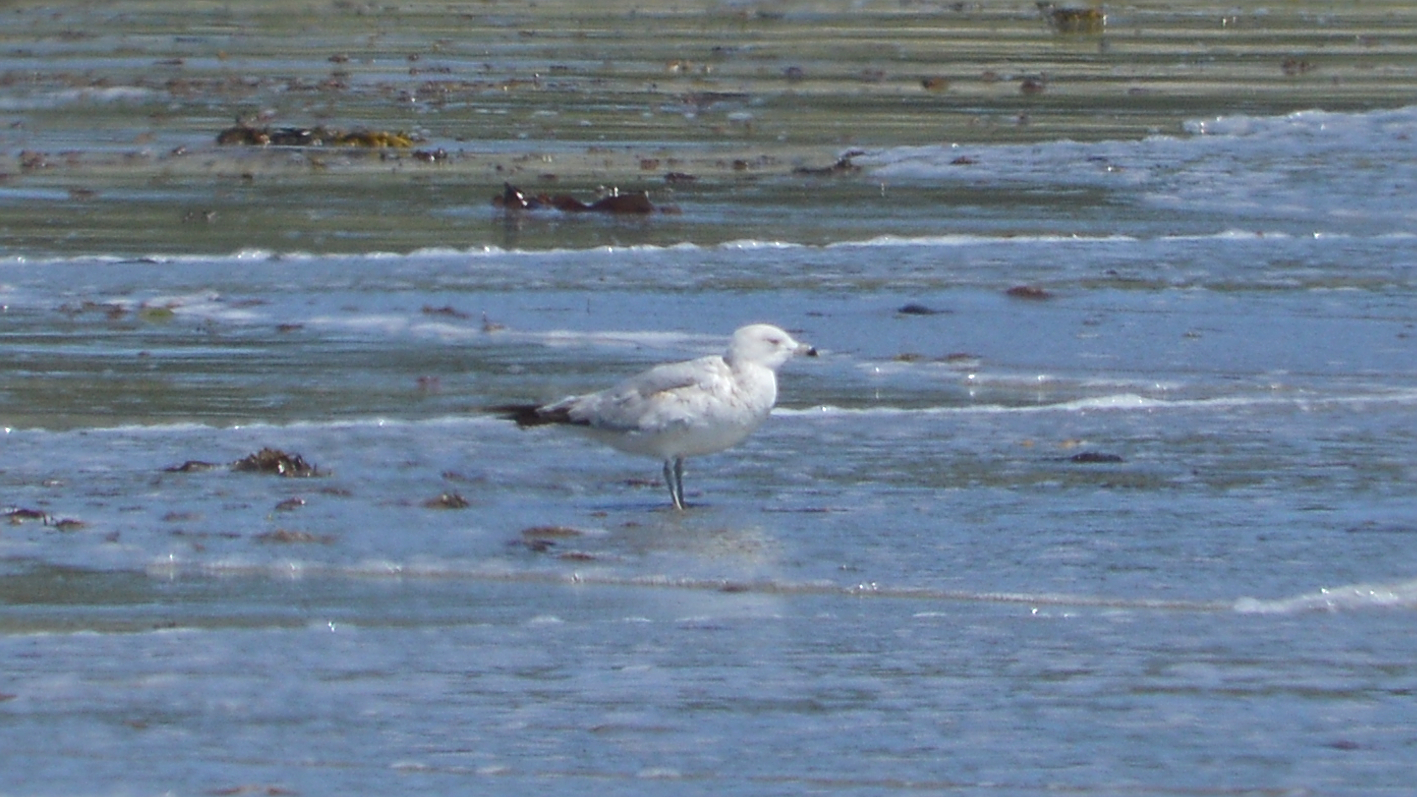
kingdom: Animalia
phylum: Chordata
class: Aves
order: Charadriiformes
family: Laridae
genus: Larus
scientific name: Larus delawarensis
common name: Ring-billed gull
